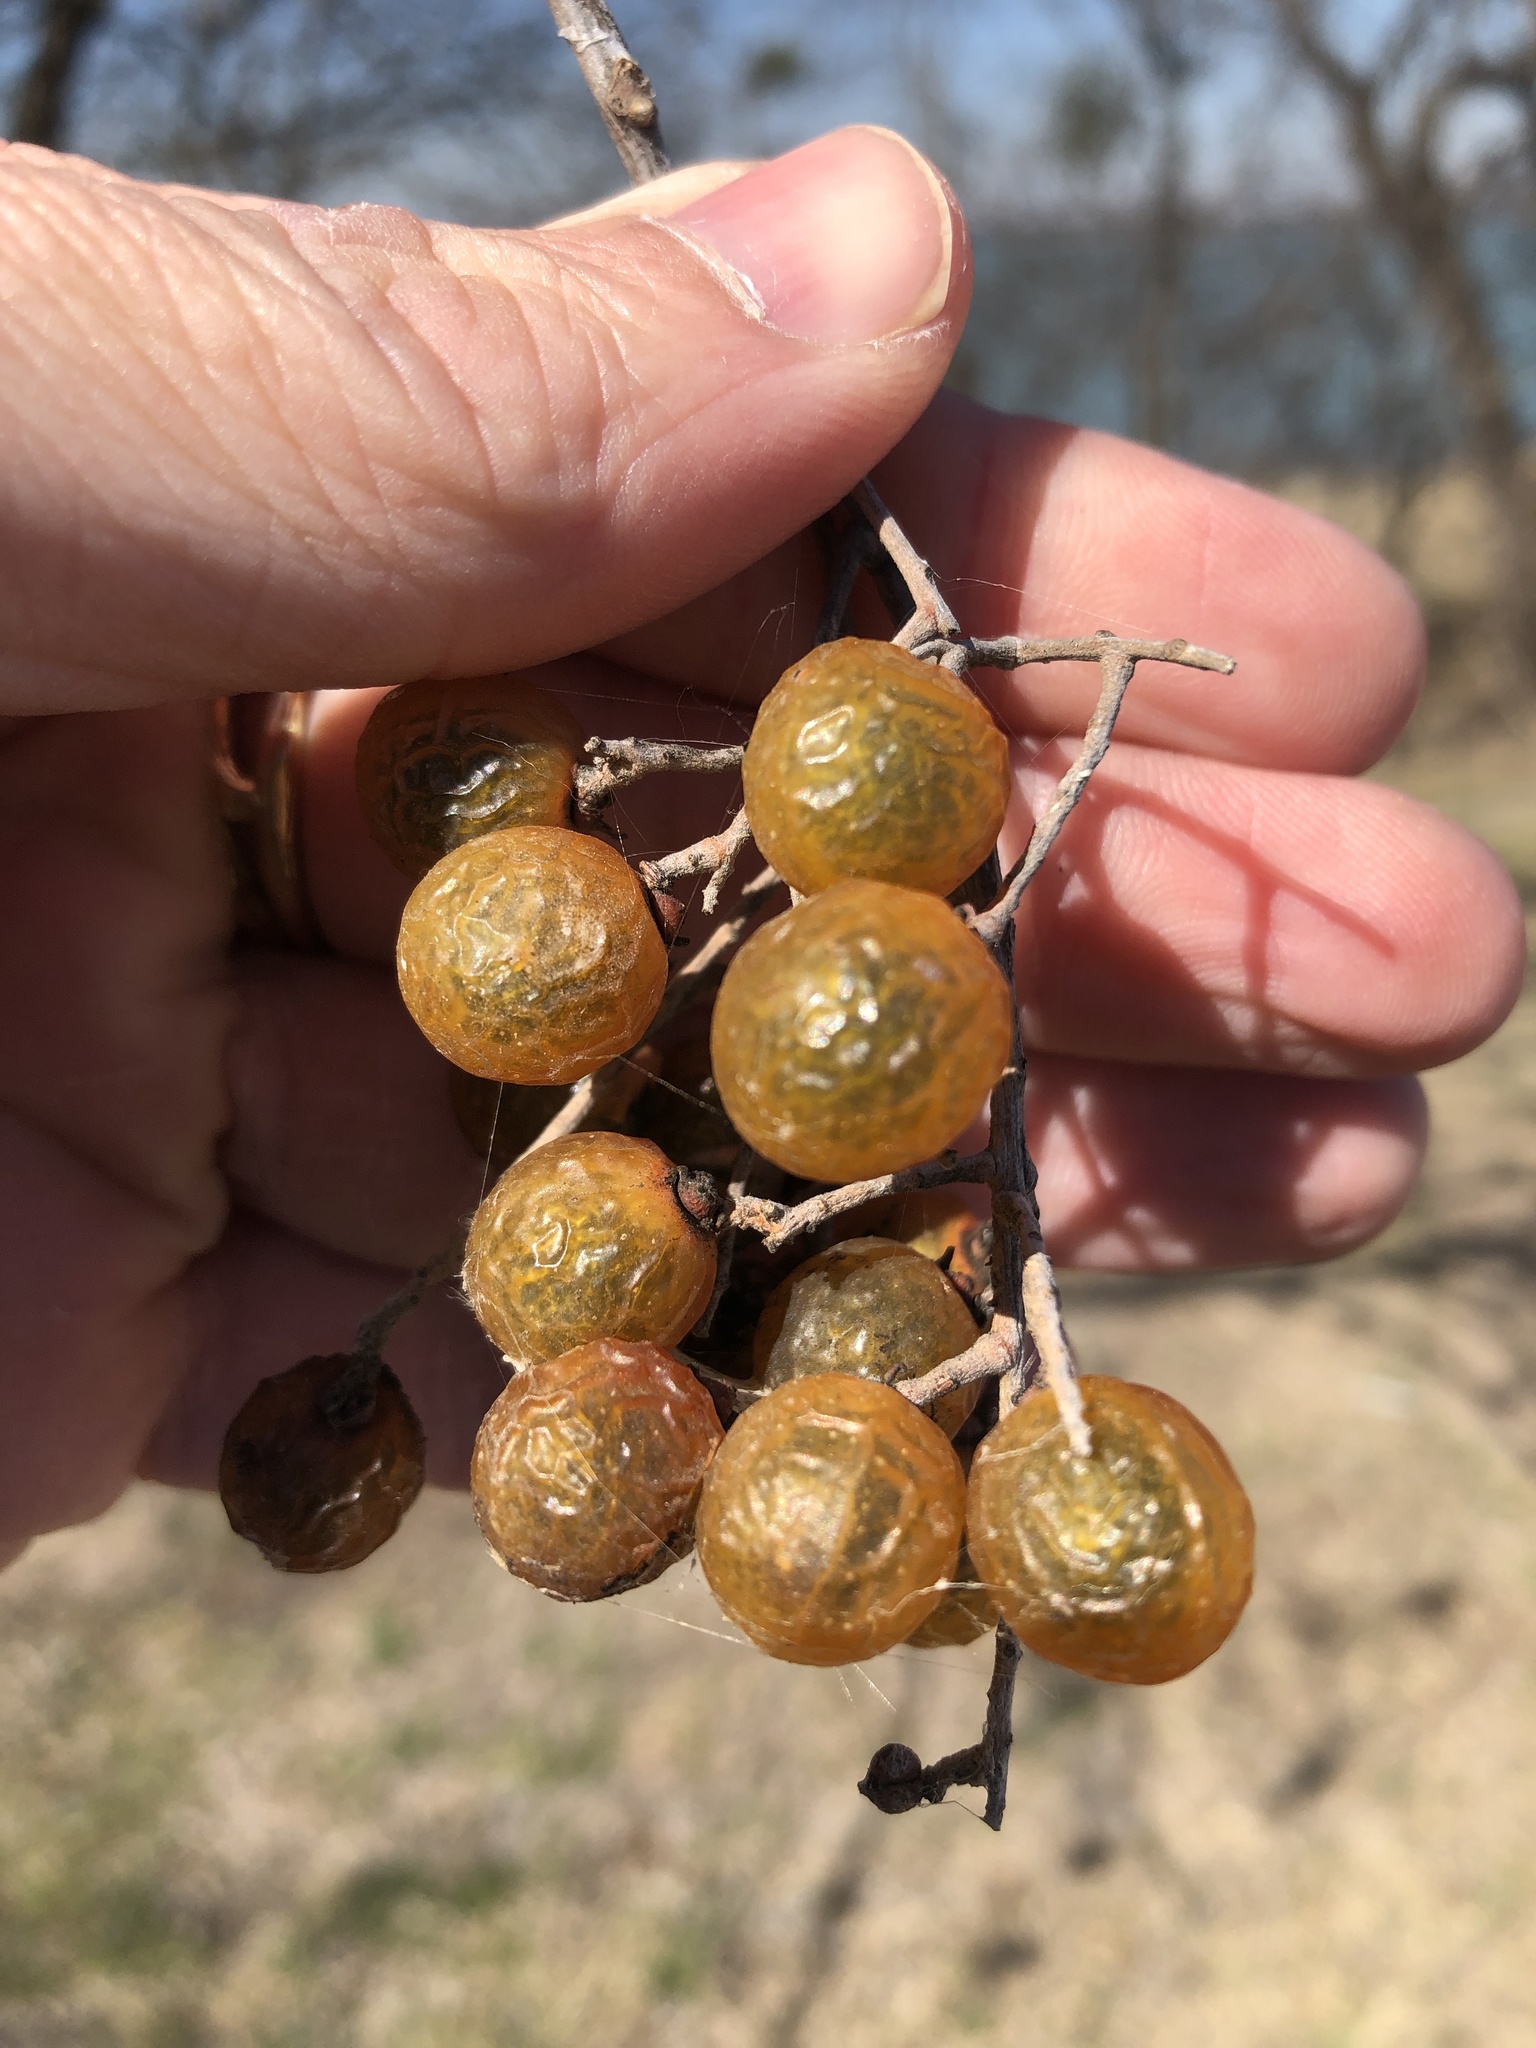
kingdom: Plantae
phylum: Tracheophyta
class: Magnoliopsida
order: Sapindales
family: Sapindaceae
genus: Sapindus
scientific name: Sapindus drummondii
